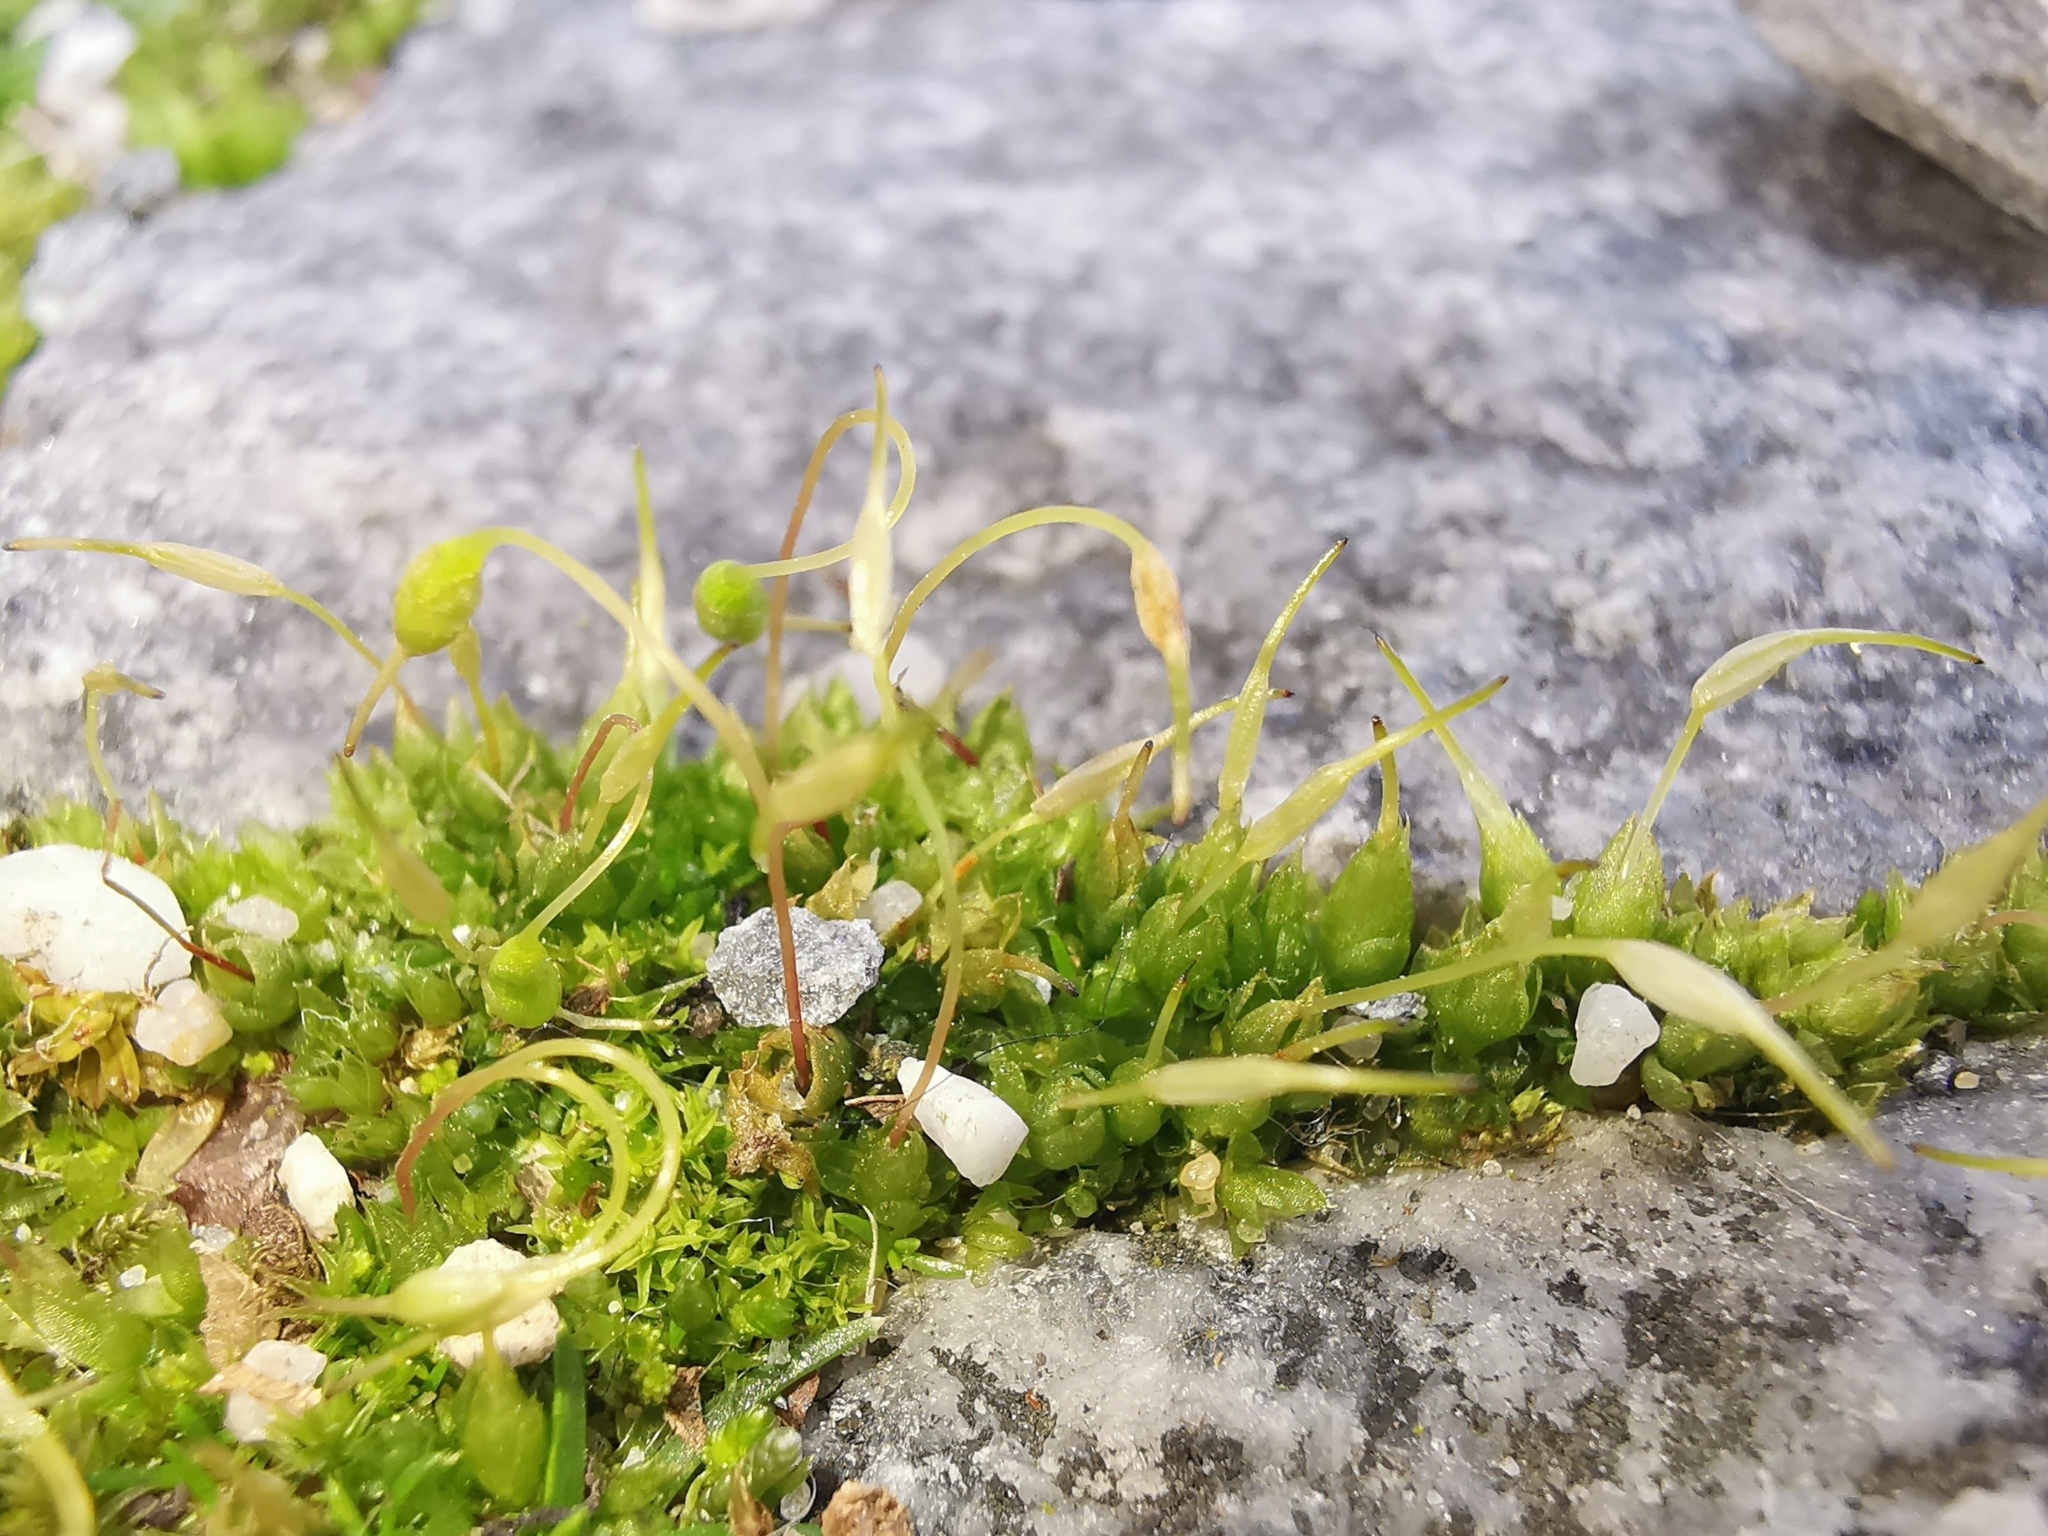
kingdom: Plantae
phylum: Bryophyta
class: Bryopsida
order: Funariales
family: Funariaceae
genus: Funaria
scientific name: Funaria hygrometrica
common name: Common cord moss
